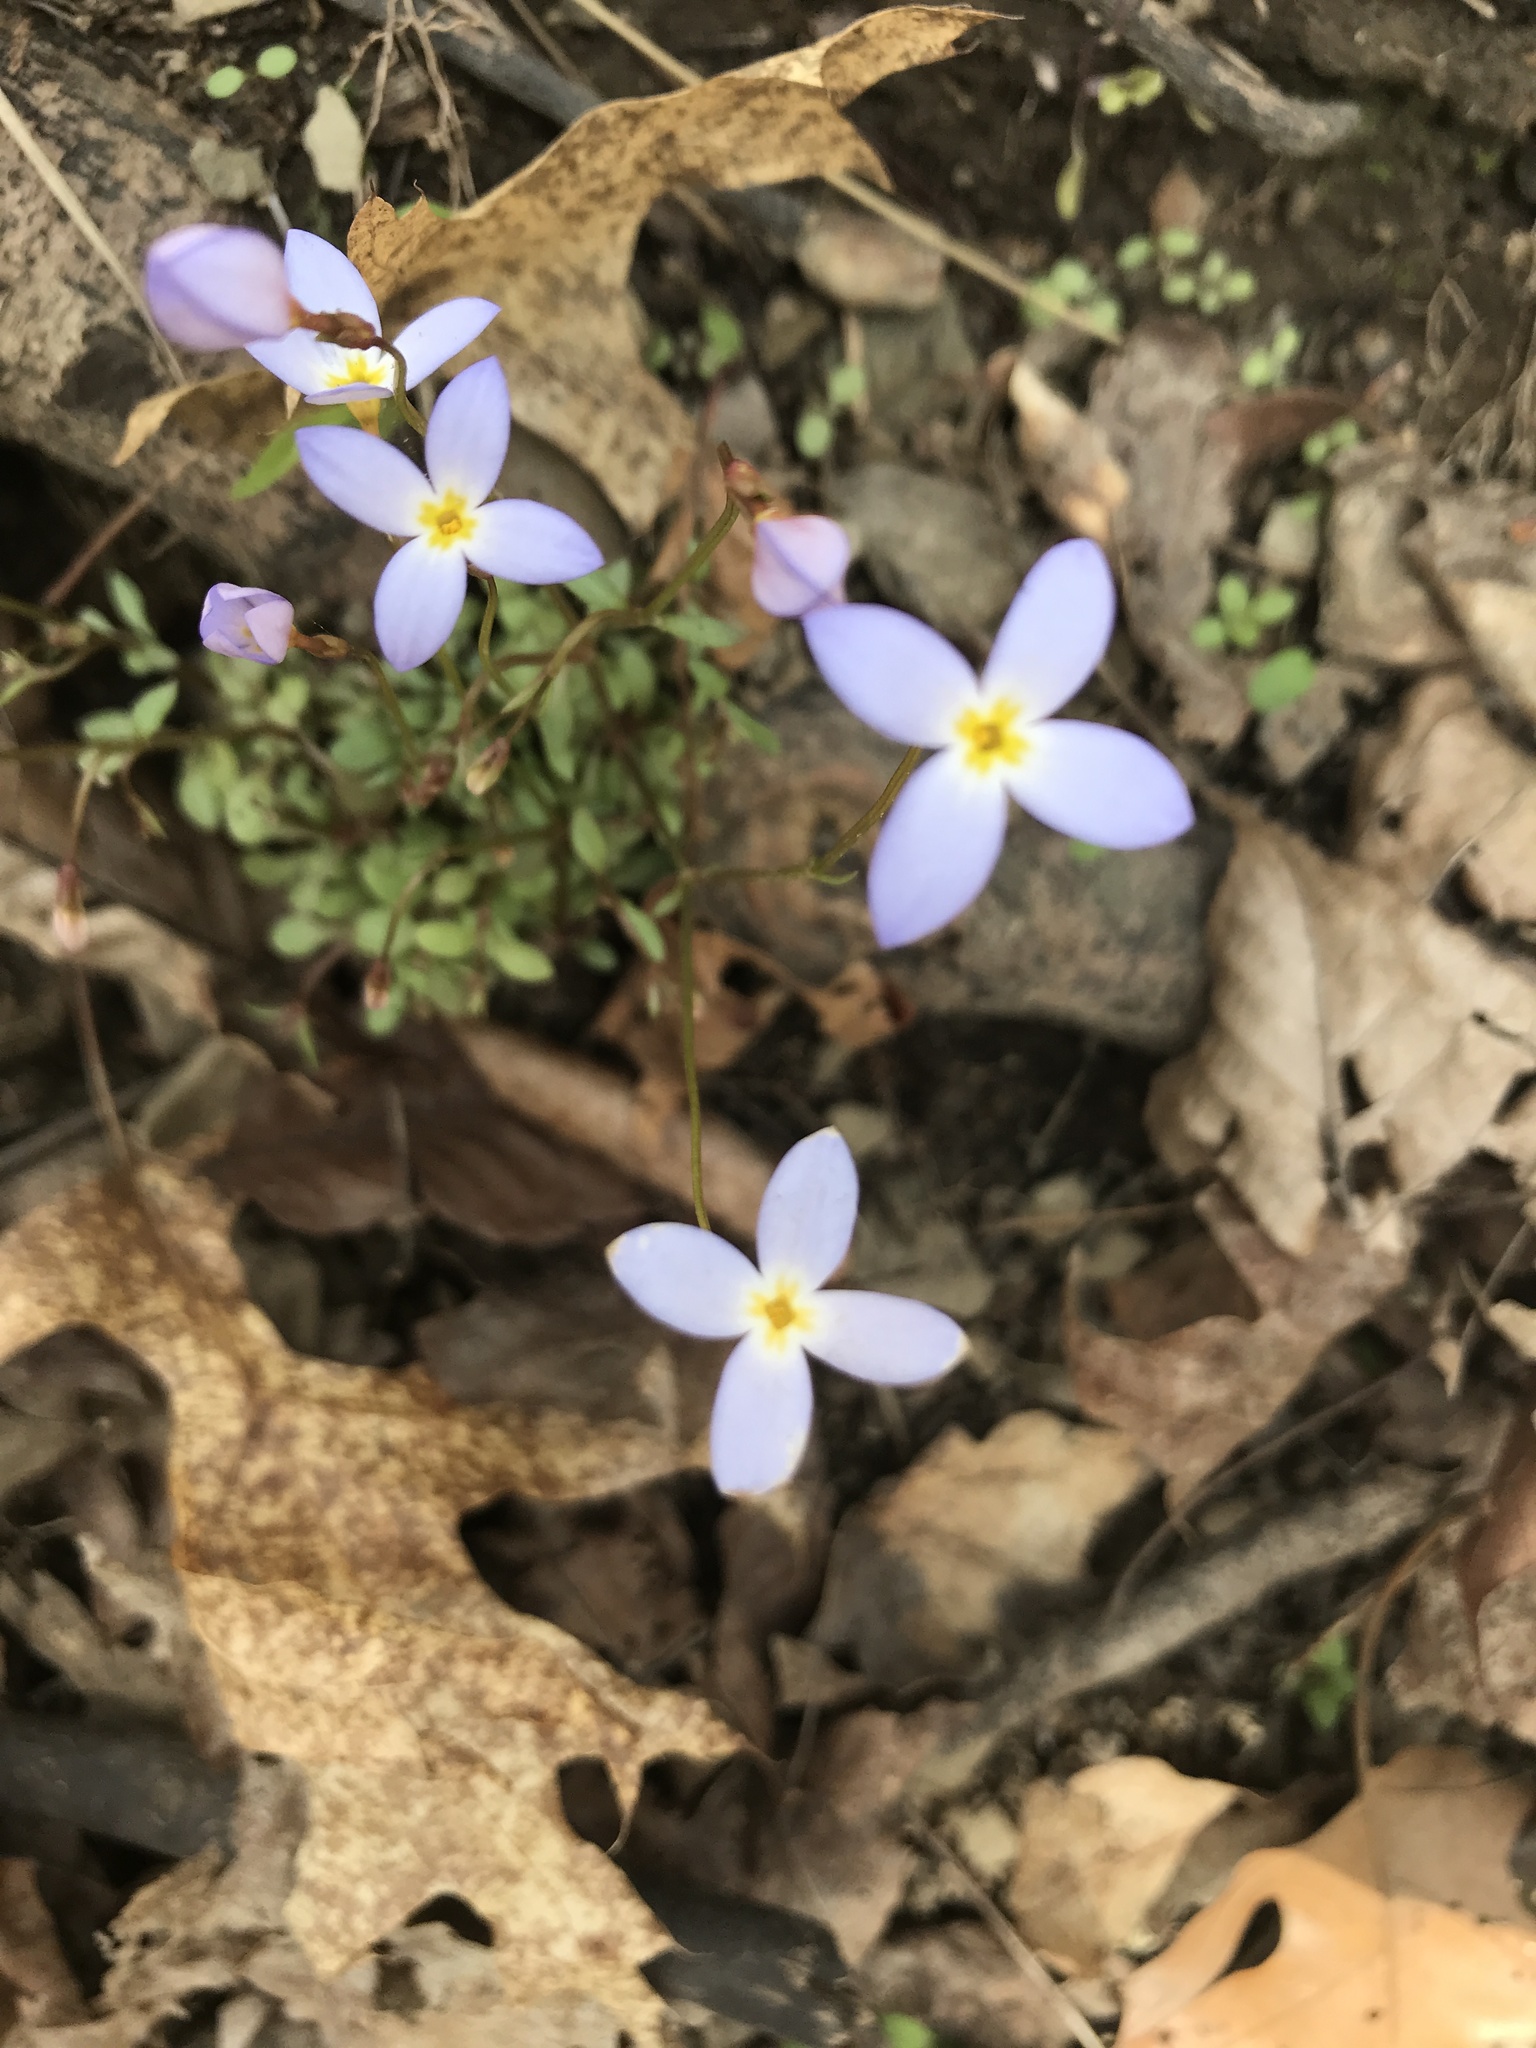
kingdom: Plantae
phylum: Tracheophyta
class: Magnoliopsida
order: Gentianales
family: Rubiaceae
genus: Houstonia
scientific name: Houstonia caerulea
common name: Bluets
